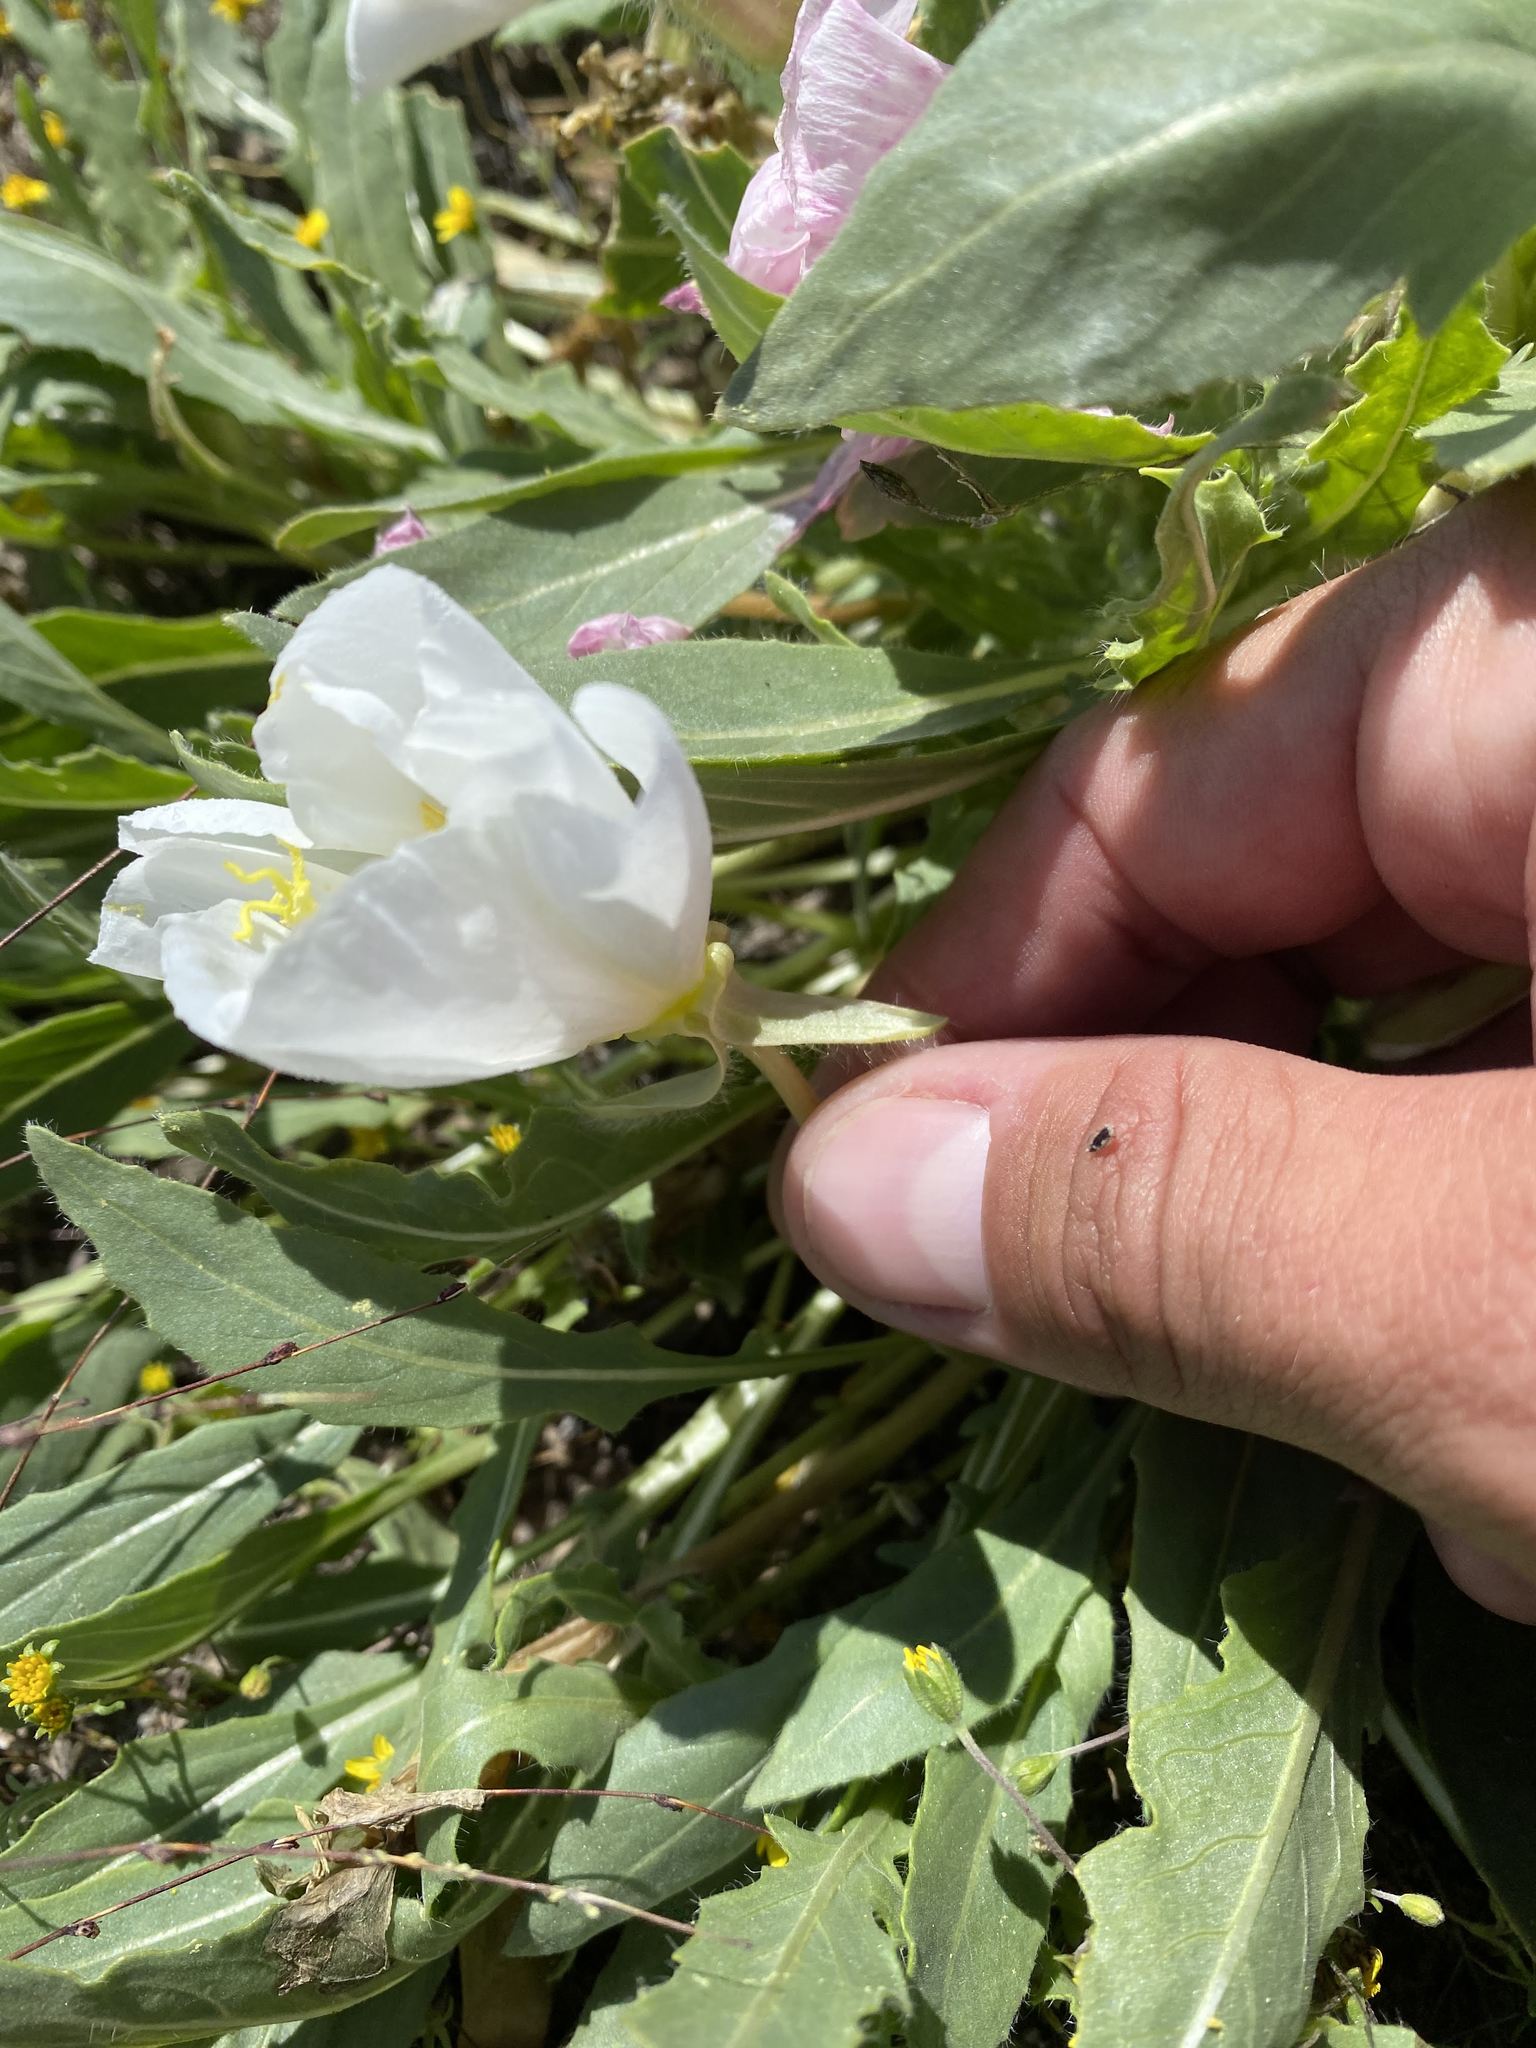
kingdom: Plantae
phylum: Tracheophyta
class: Magnoliopsida
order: Myrtales
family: Onagraceae
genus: Oenothera
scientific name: Oenothera deltoides
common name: Basket evening-primrose
